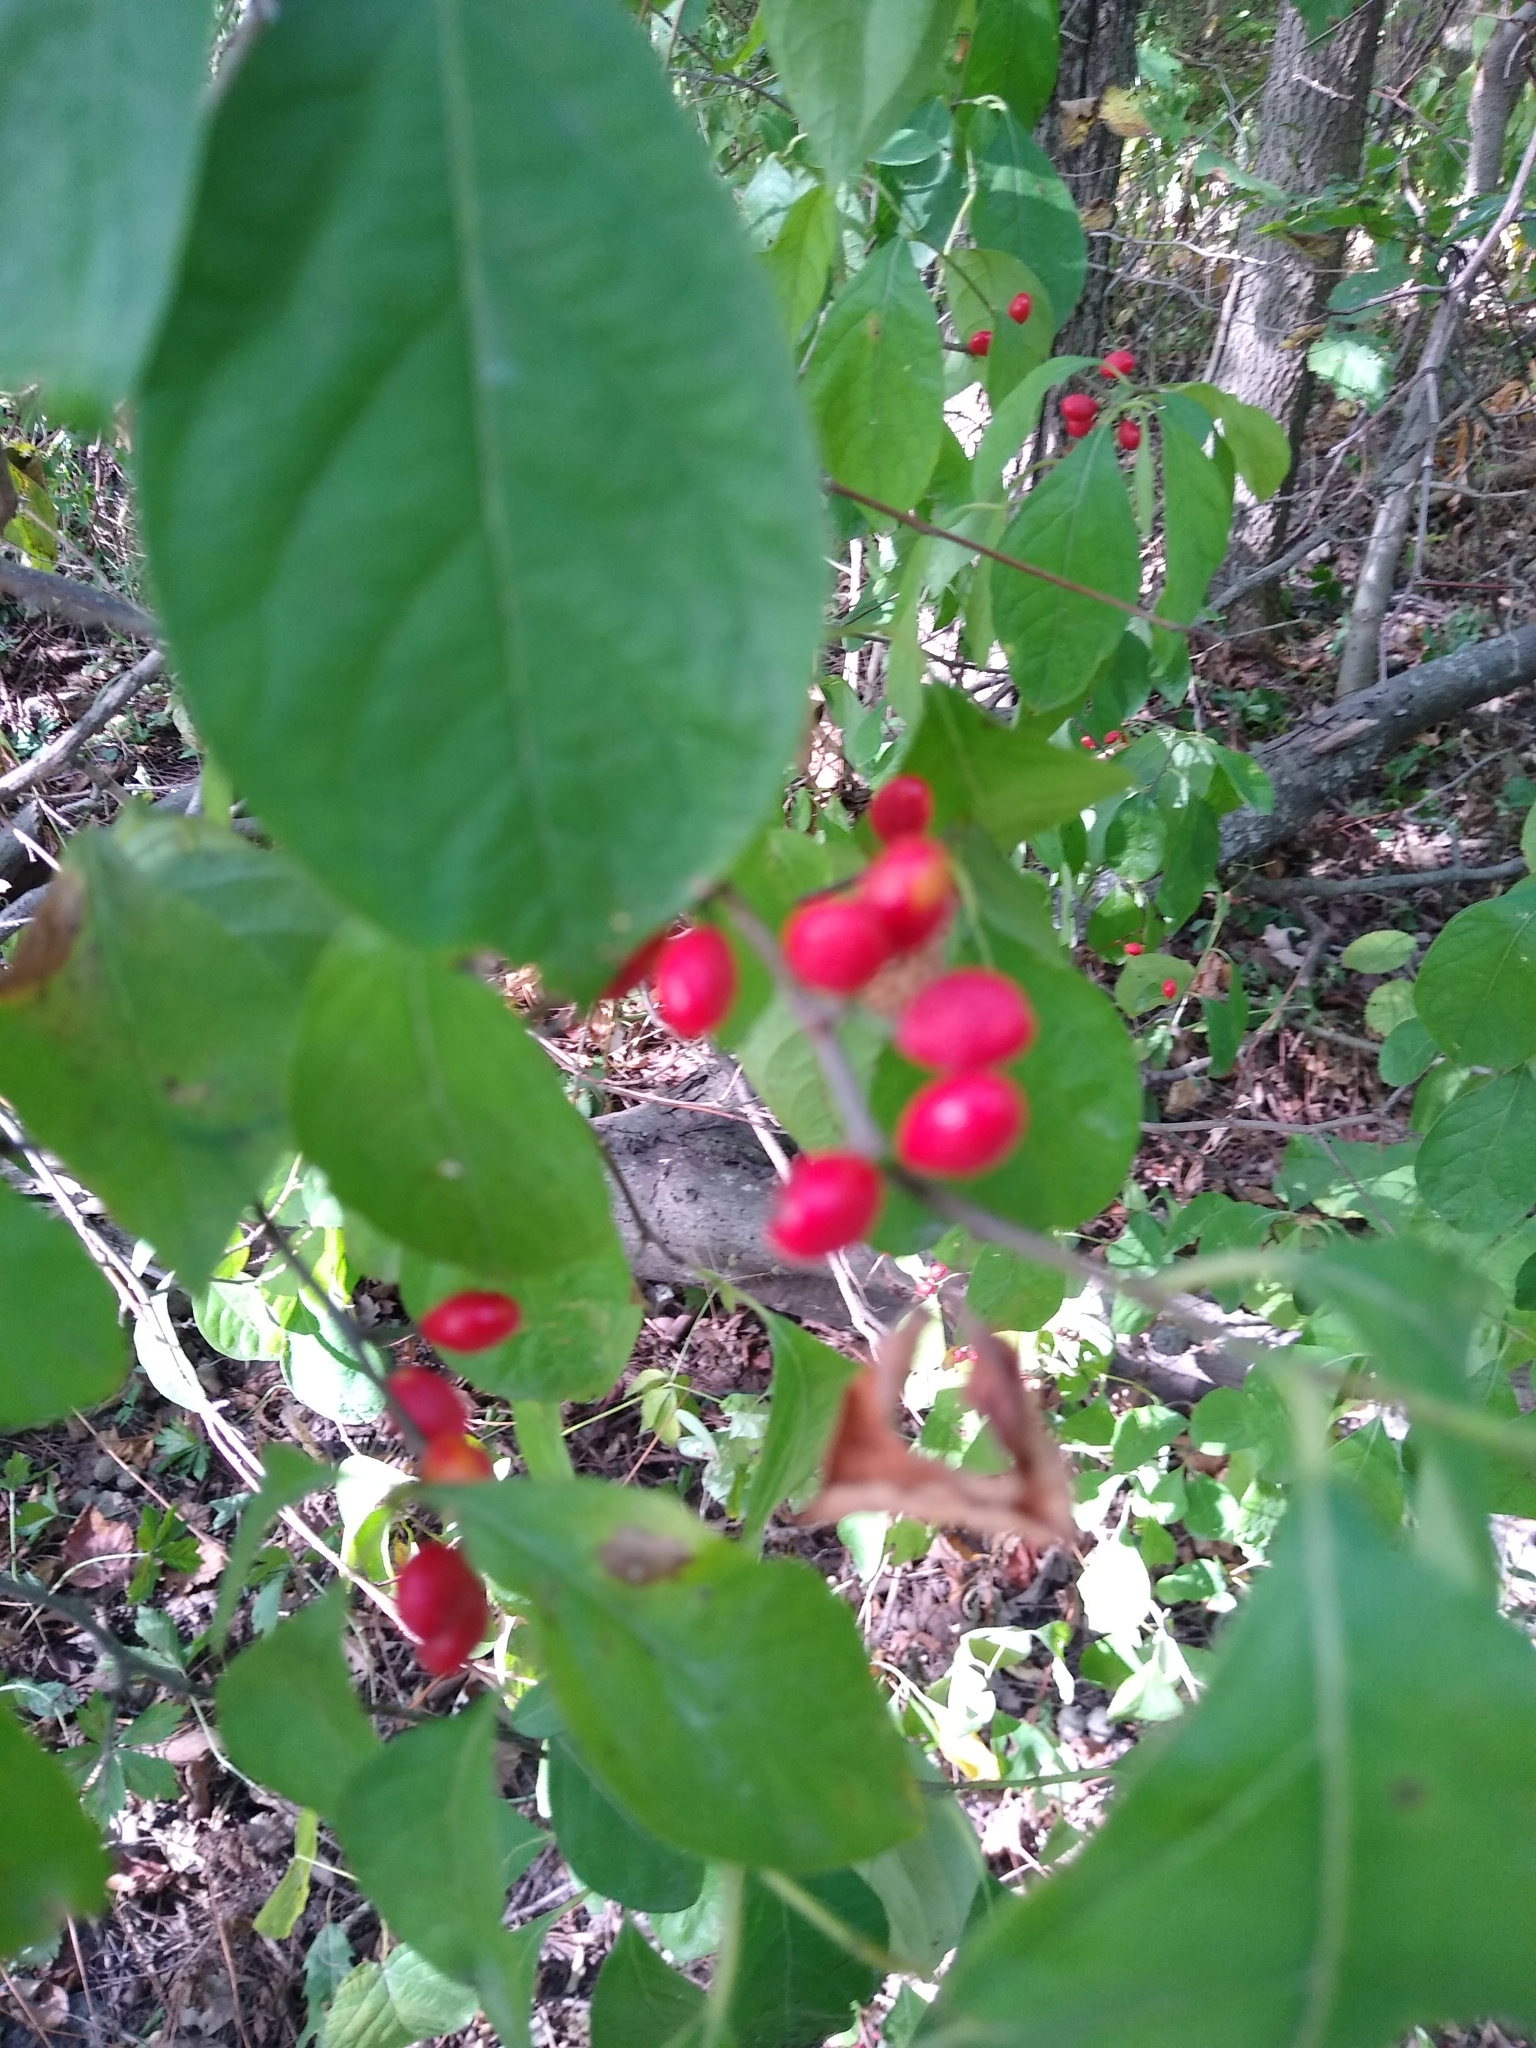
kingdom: Plantae
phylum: Tracheophyta
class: Magnoliopsida
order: Laurales
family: Lauraceae
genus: Lindera
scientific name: Lindera benzoin
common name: Spicebush
